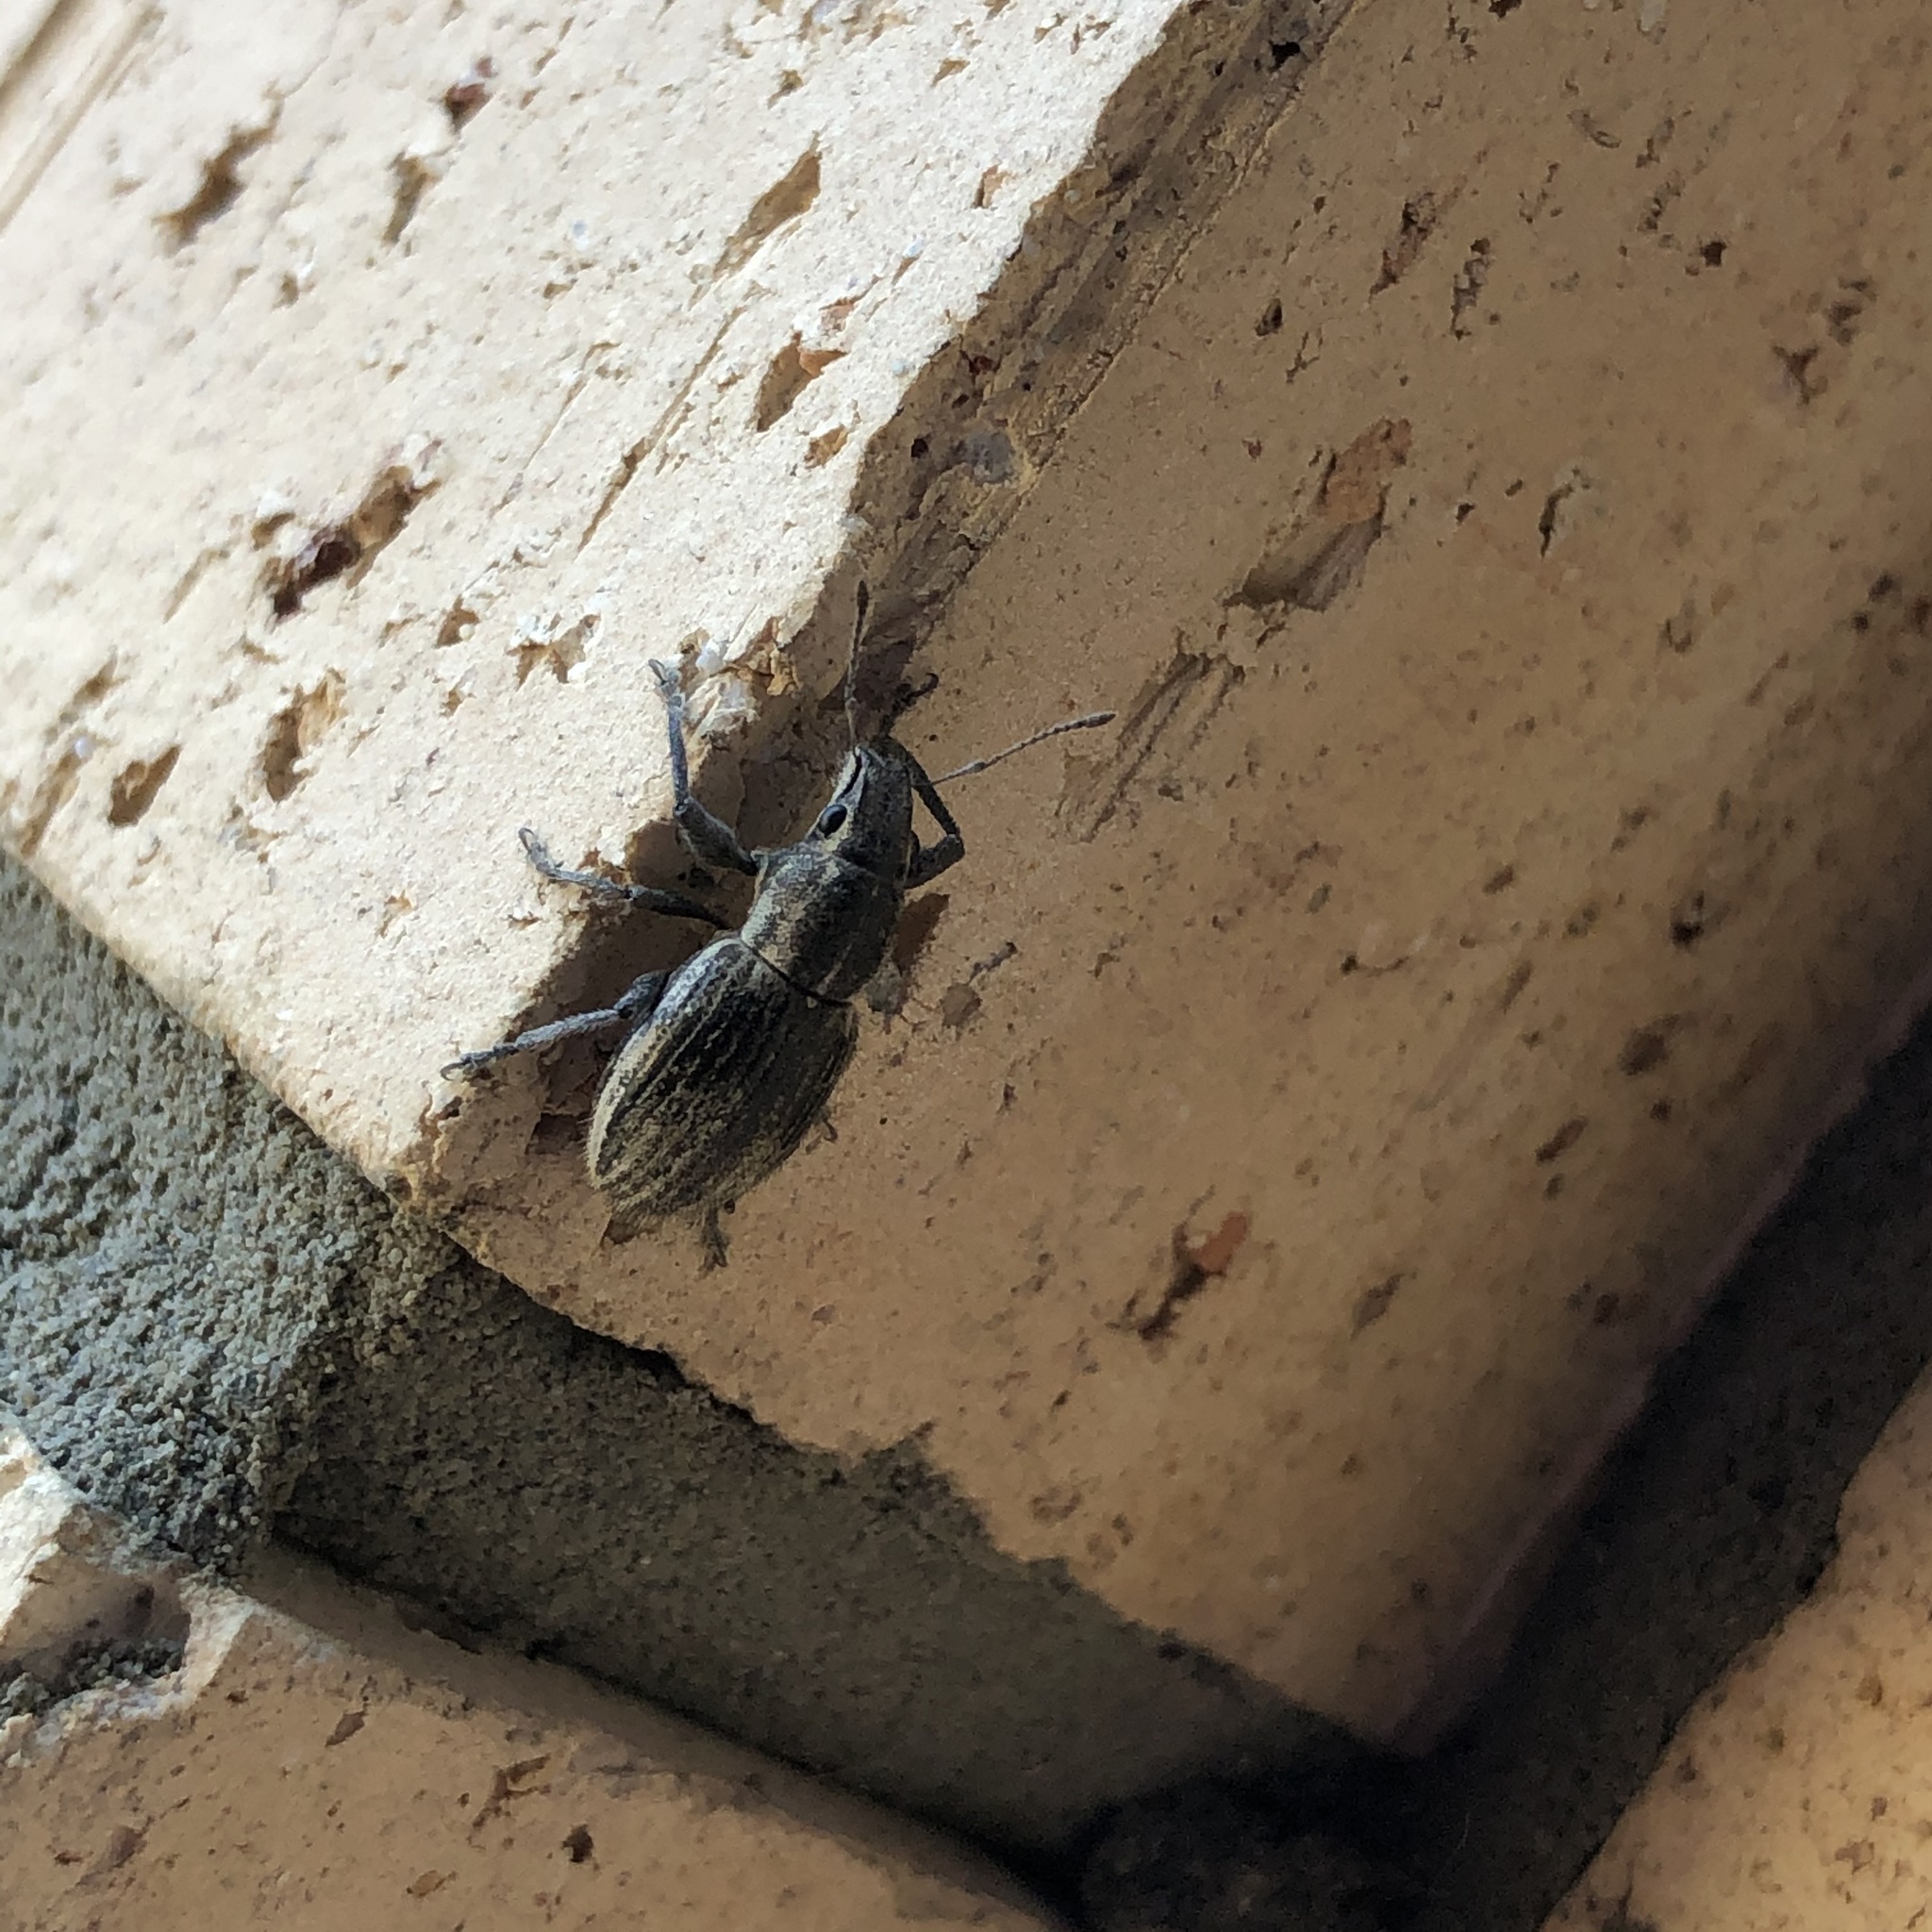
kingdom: Animalia
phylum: Arthropoda
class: Insecta
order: Coleoptera
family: Curculionidae
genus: Naupactus
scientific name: Naupactus leucoloma
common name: Whitefringed beetle
